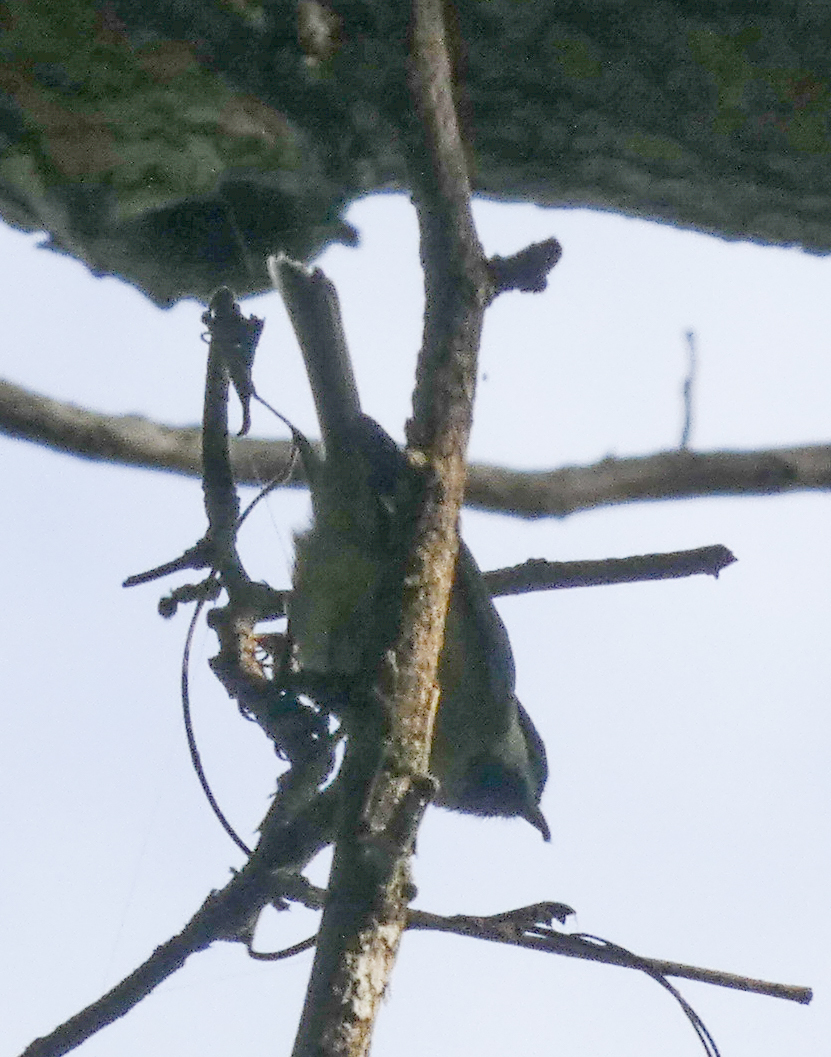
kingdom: Animalia
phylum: Chordata
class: Aves
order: Passeriformes
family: Paridae
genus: Poecile
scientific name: Poecile carolinensis
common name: Carolina chickadee
